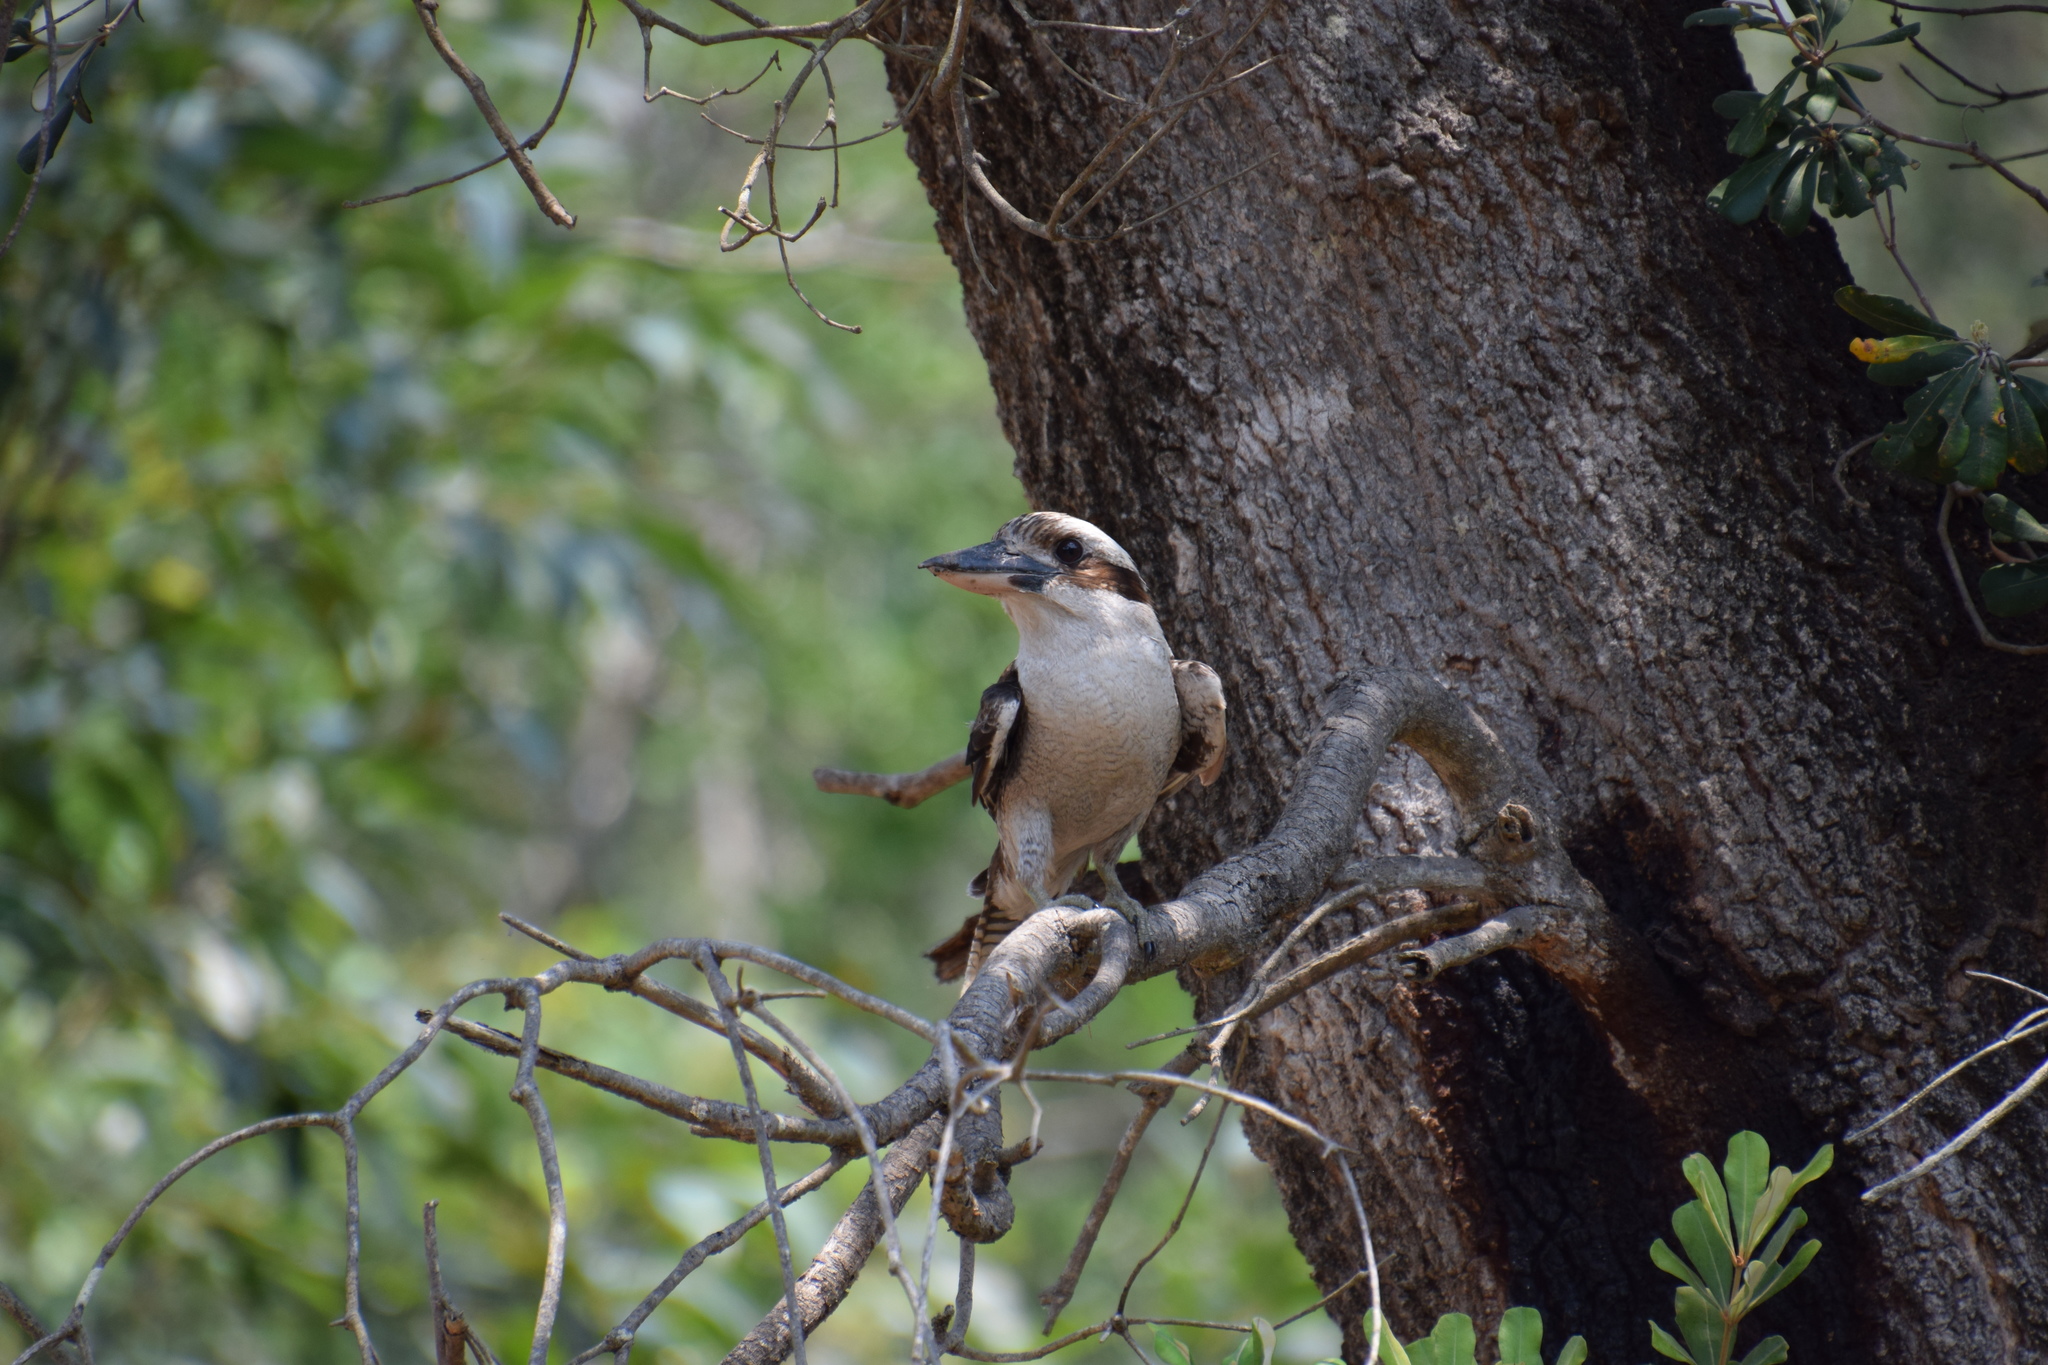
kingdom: Animalia
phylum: Chordata
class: Aves
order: Coraciiformes
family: Alcedinidae
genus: Dacelo
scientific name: Dacelo novaeguineae
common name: Laughing kookaburra
